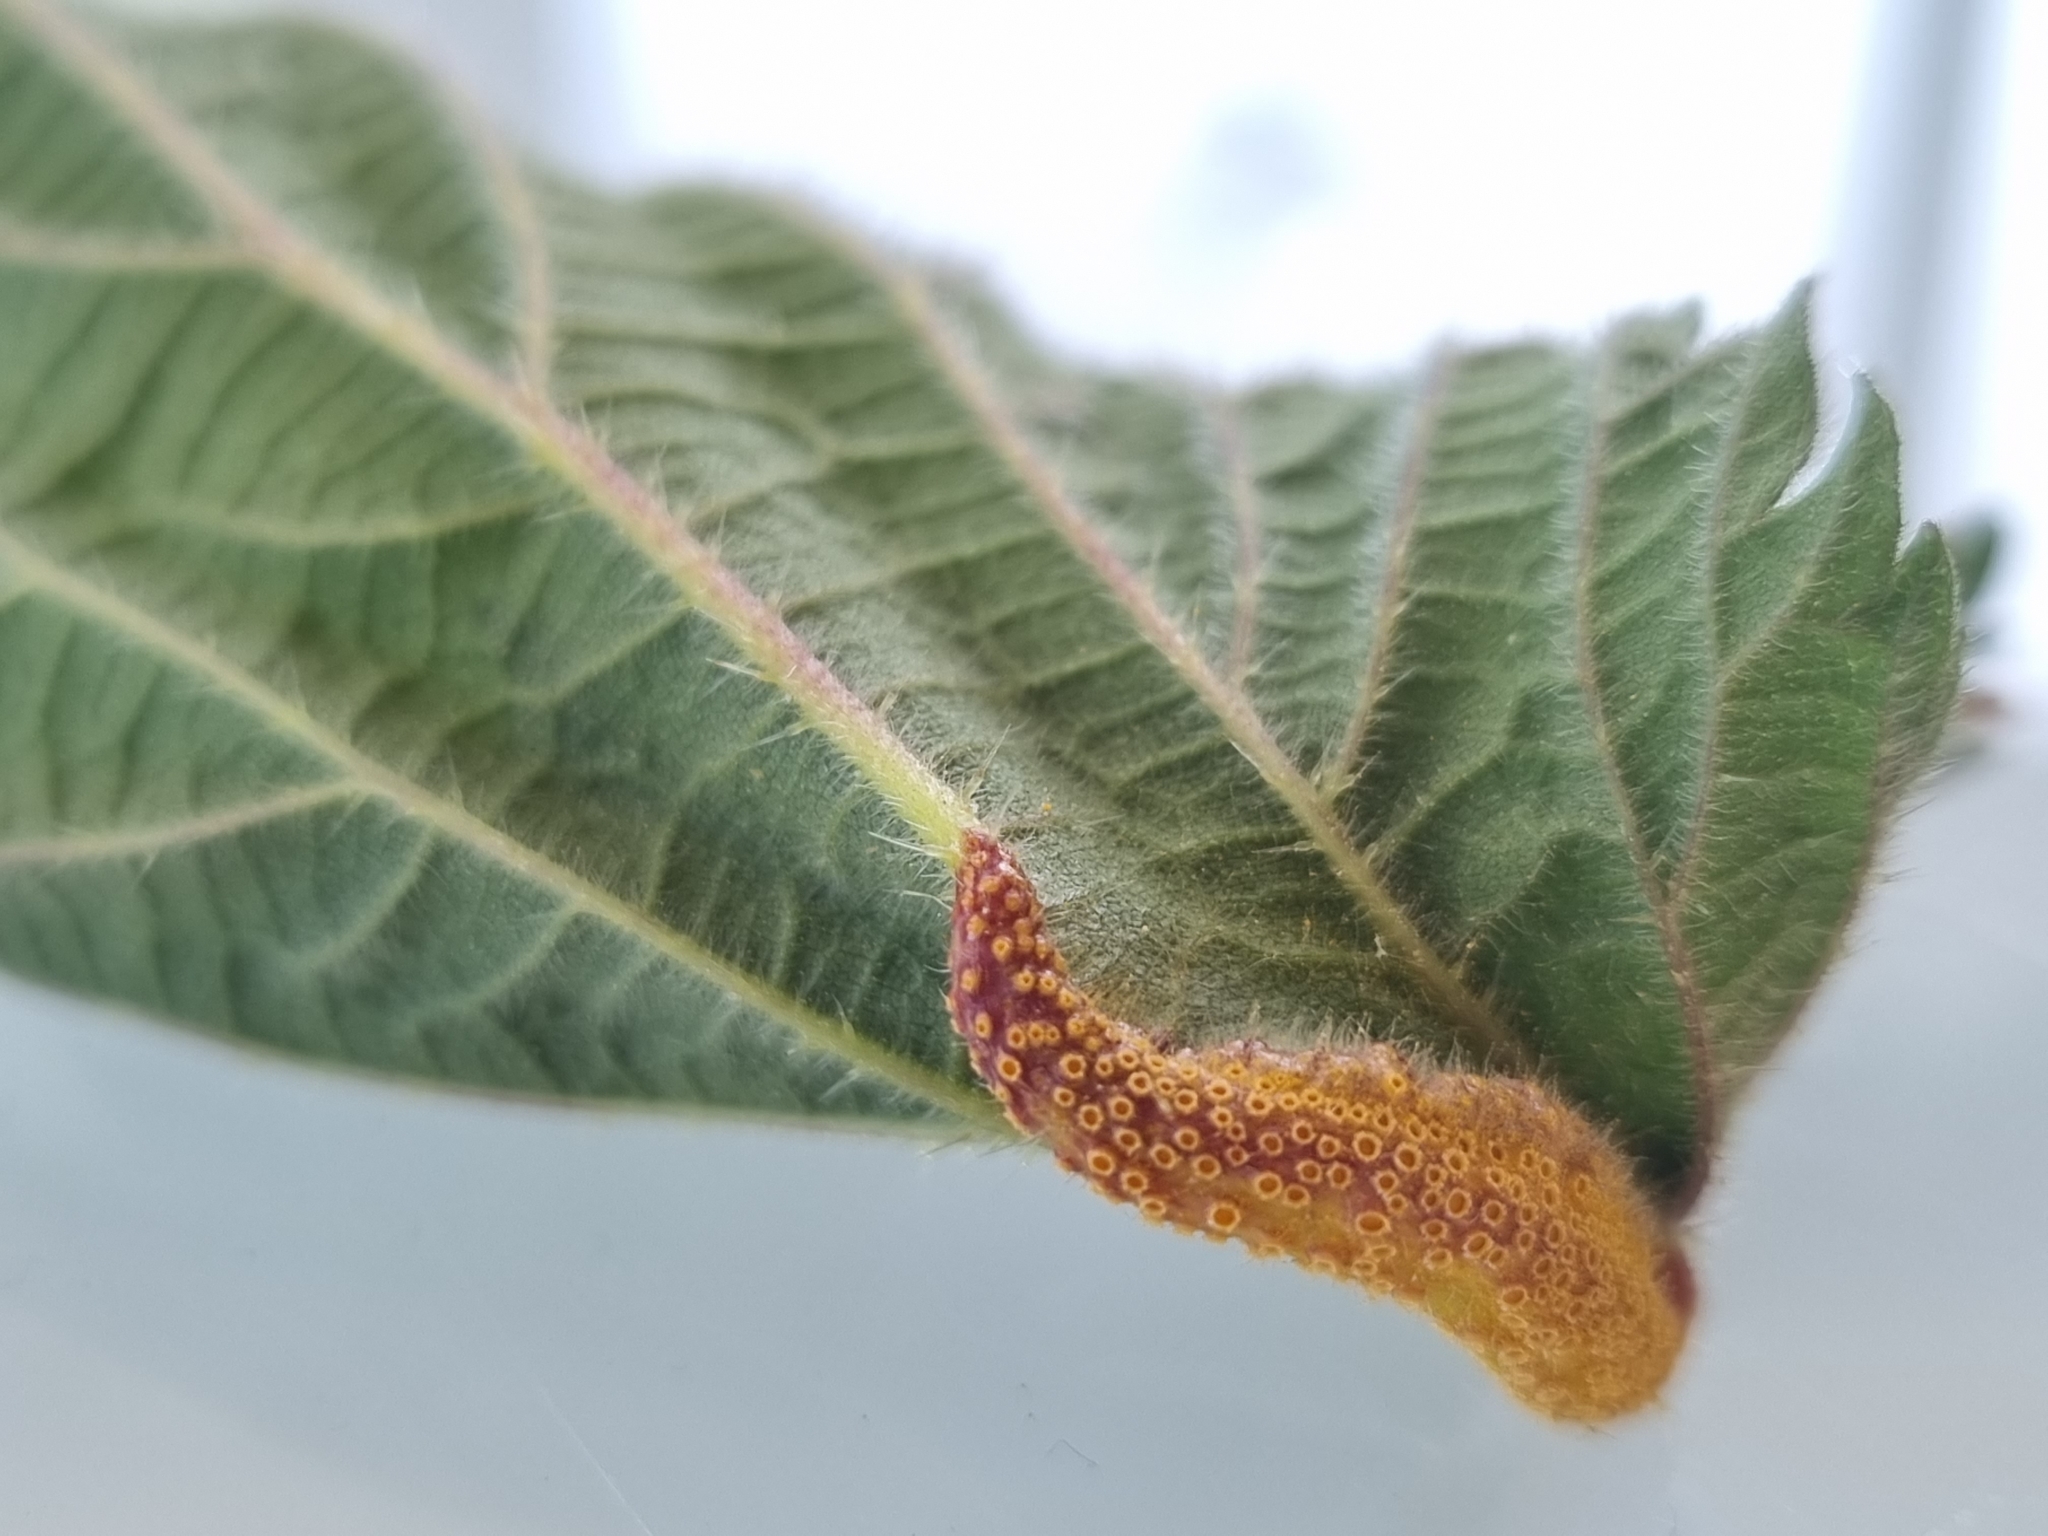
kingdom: Fungi
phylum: Basidiomycota
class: Pucciniomycetes
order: Pucciniales
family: Pucciniaceae
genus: Puccinia
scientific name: Puccinia urticata
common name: Nettle clustercup rust fungus
